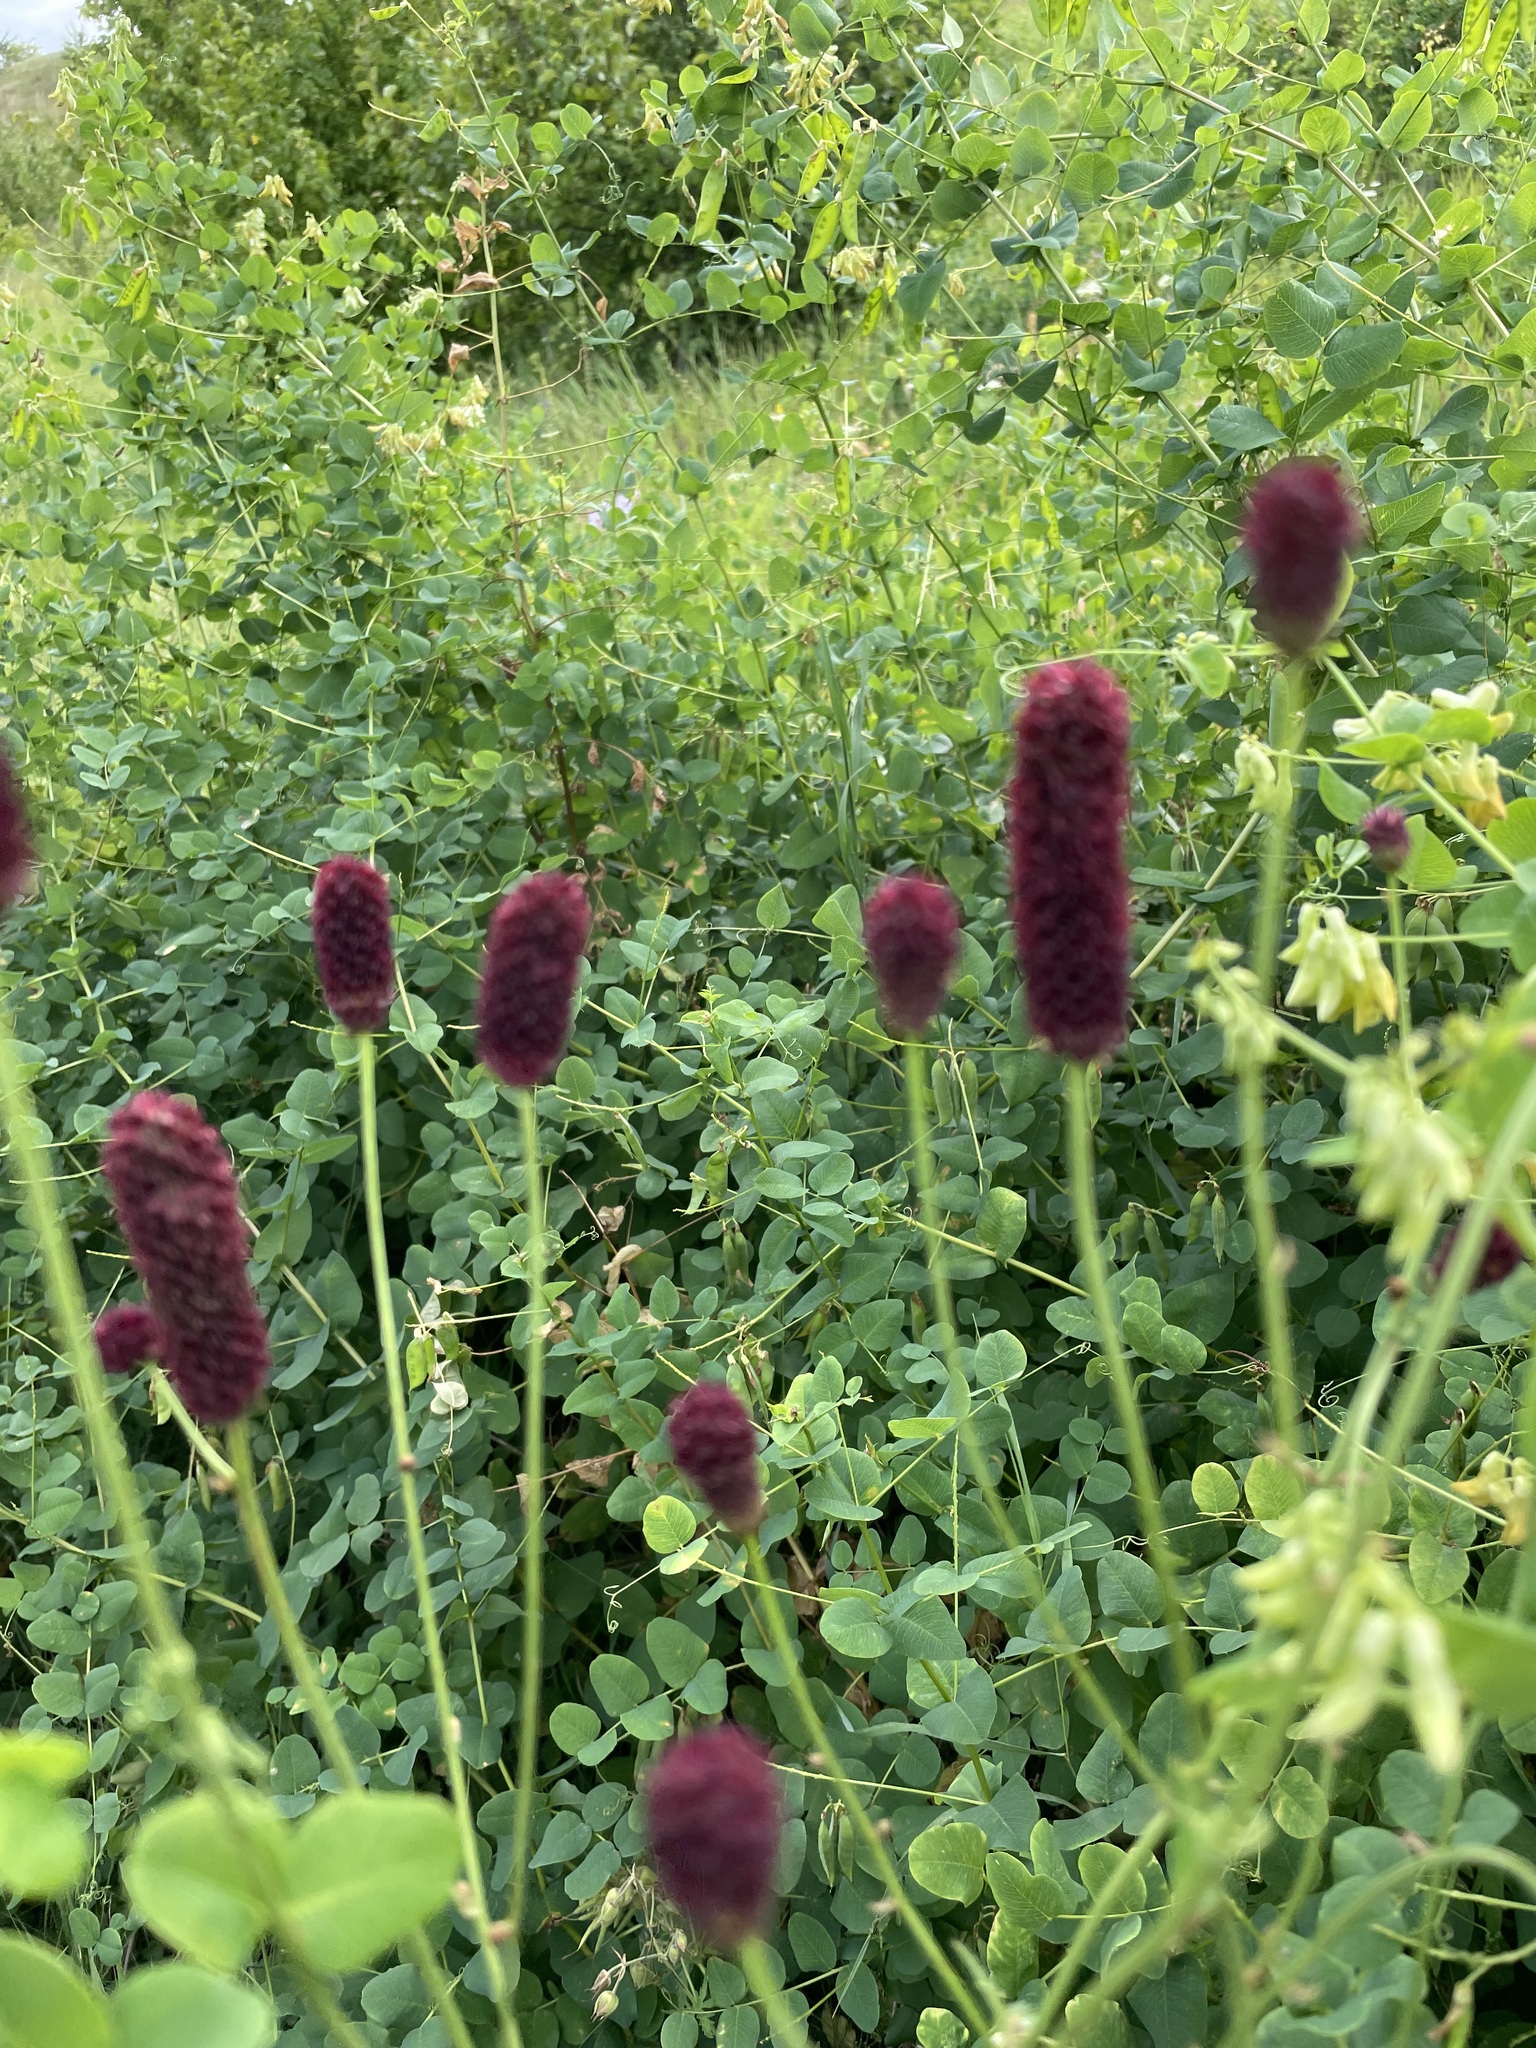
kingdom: Plantae
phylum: Tracheophyta
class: Magnoliopsida
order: Rosales
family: Rosaceae
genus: Sanguisorba
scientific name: Sanguisorba officinalis
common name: Great burnet
